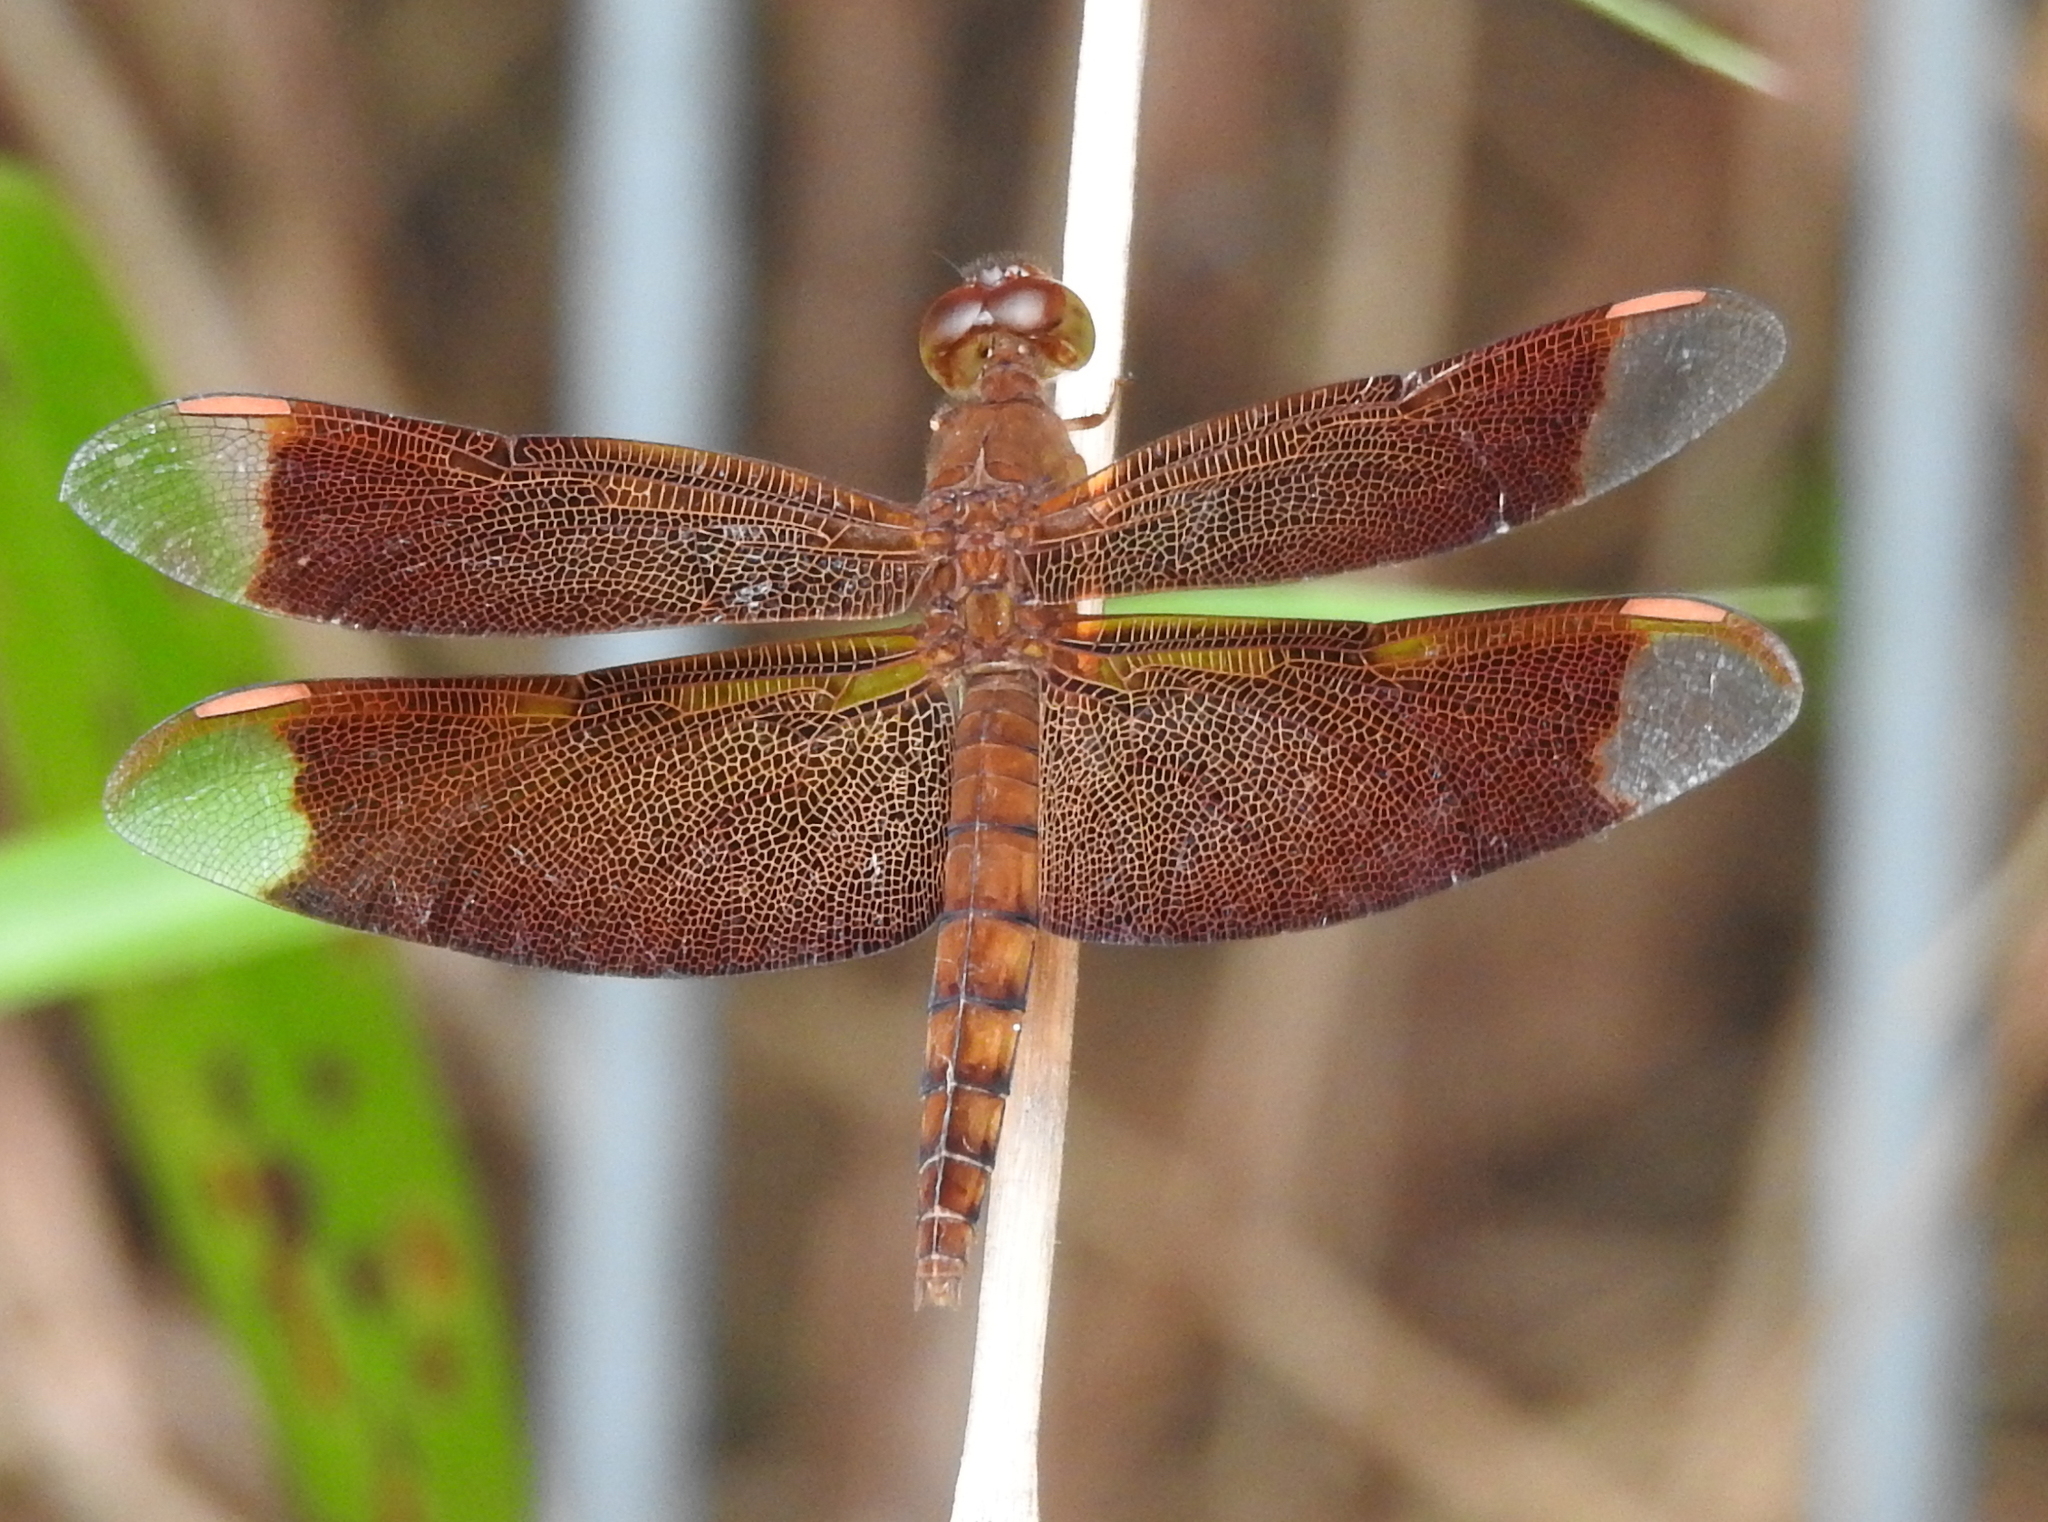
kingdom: Animalia
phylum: Arthropoda
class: Insecta
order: Odonata
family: Libellulidae
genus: Neurothemis
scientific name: Neurothemis fulvia
